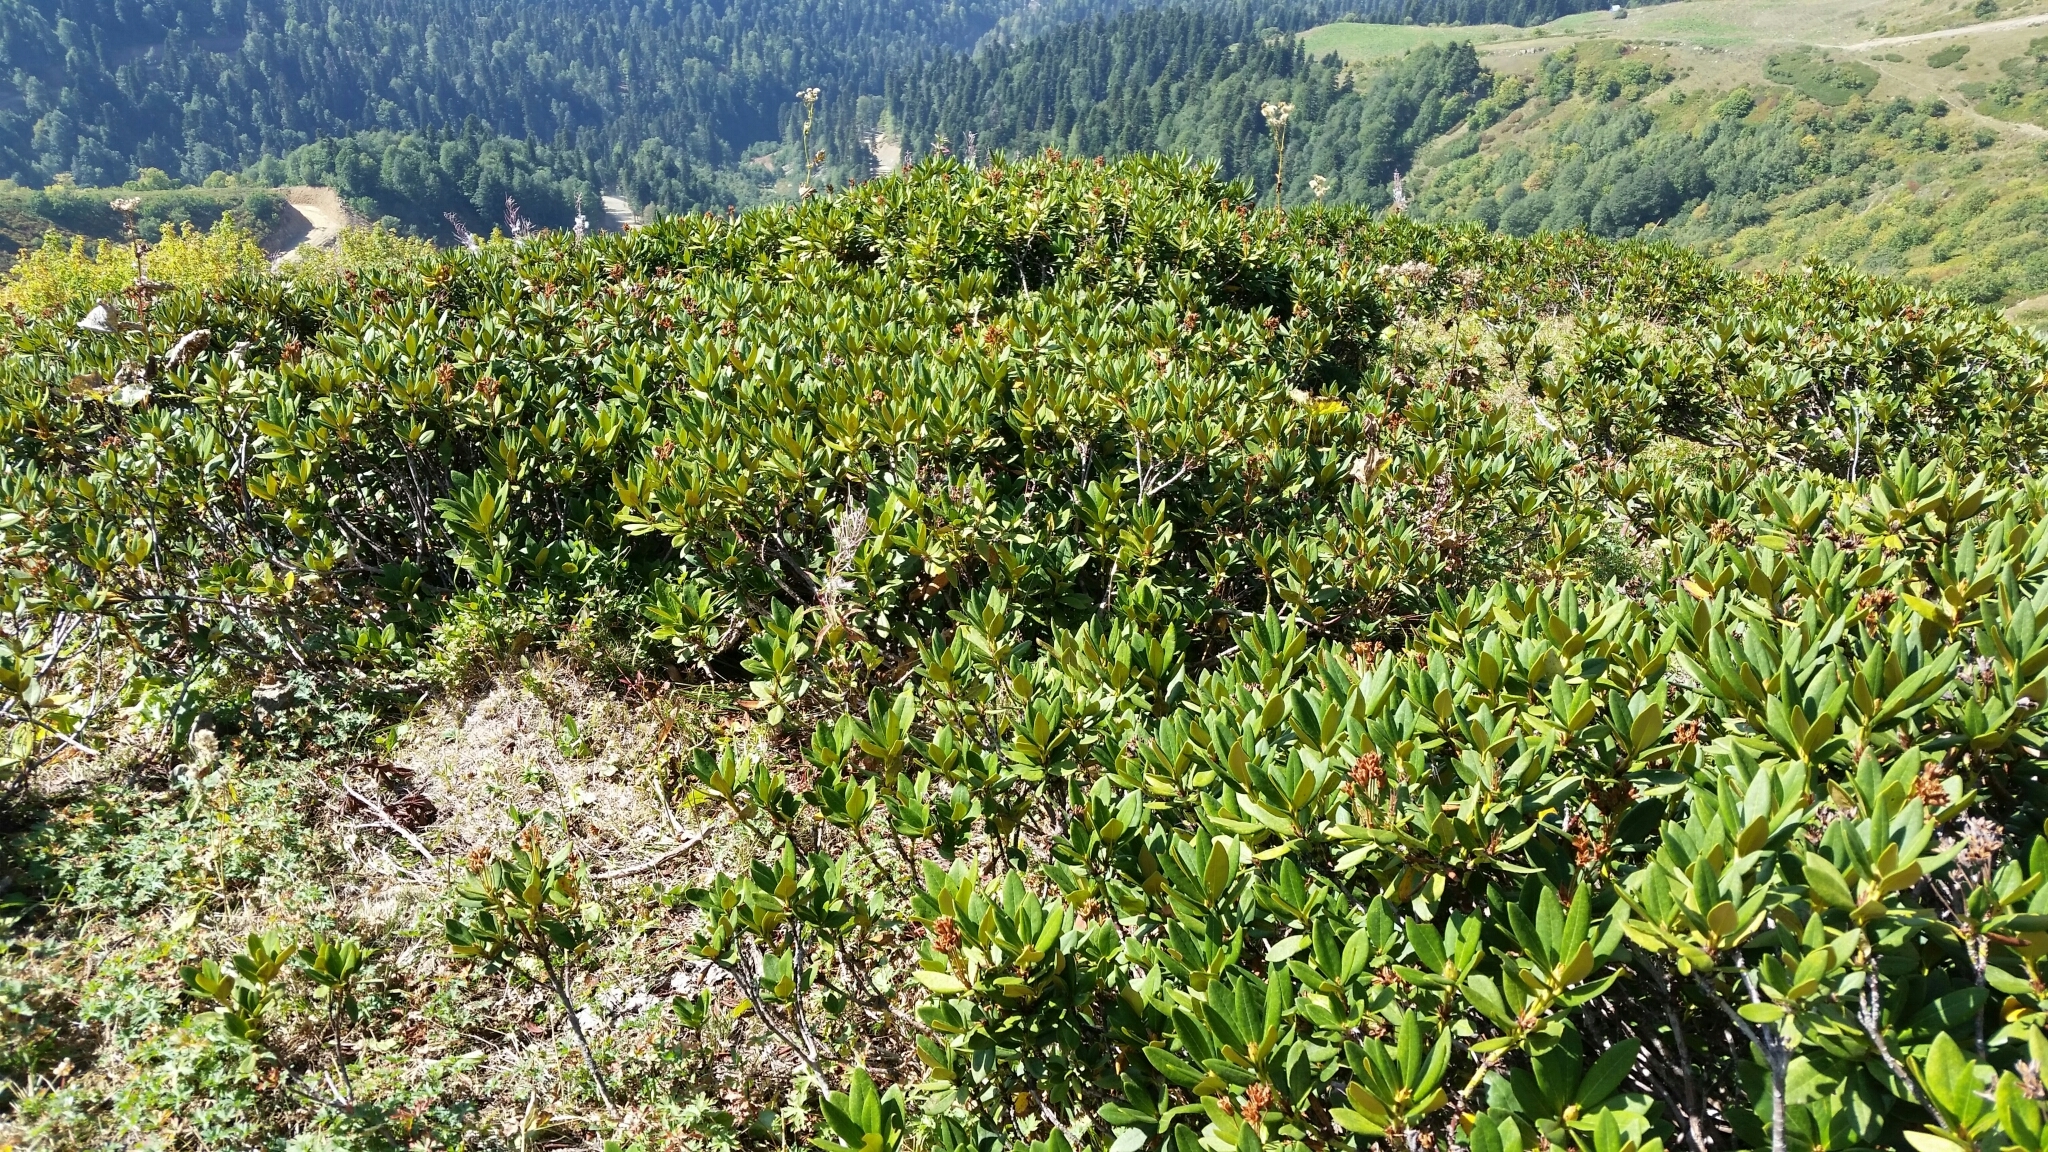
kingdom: Plantae
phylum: Tracheophyta
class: Magnoliopsida
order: Ericales
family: Ericaceae
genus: Rhododendron
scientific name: Rhododendron caucasicum
